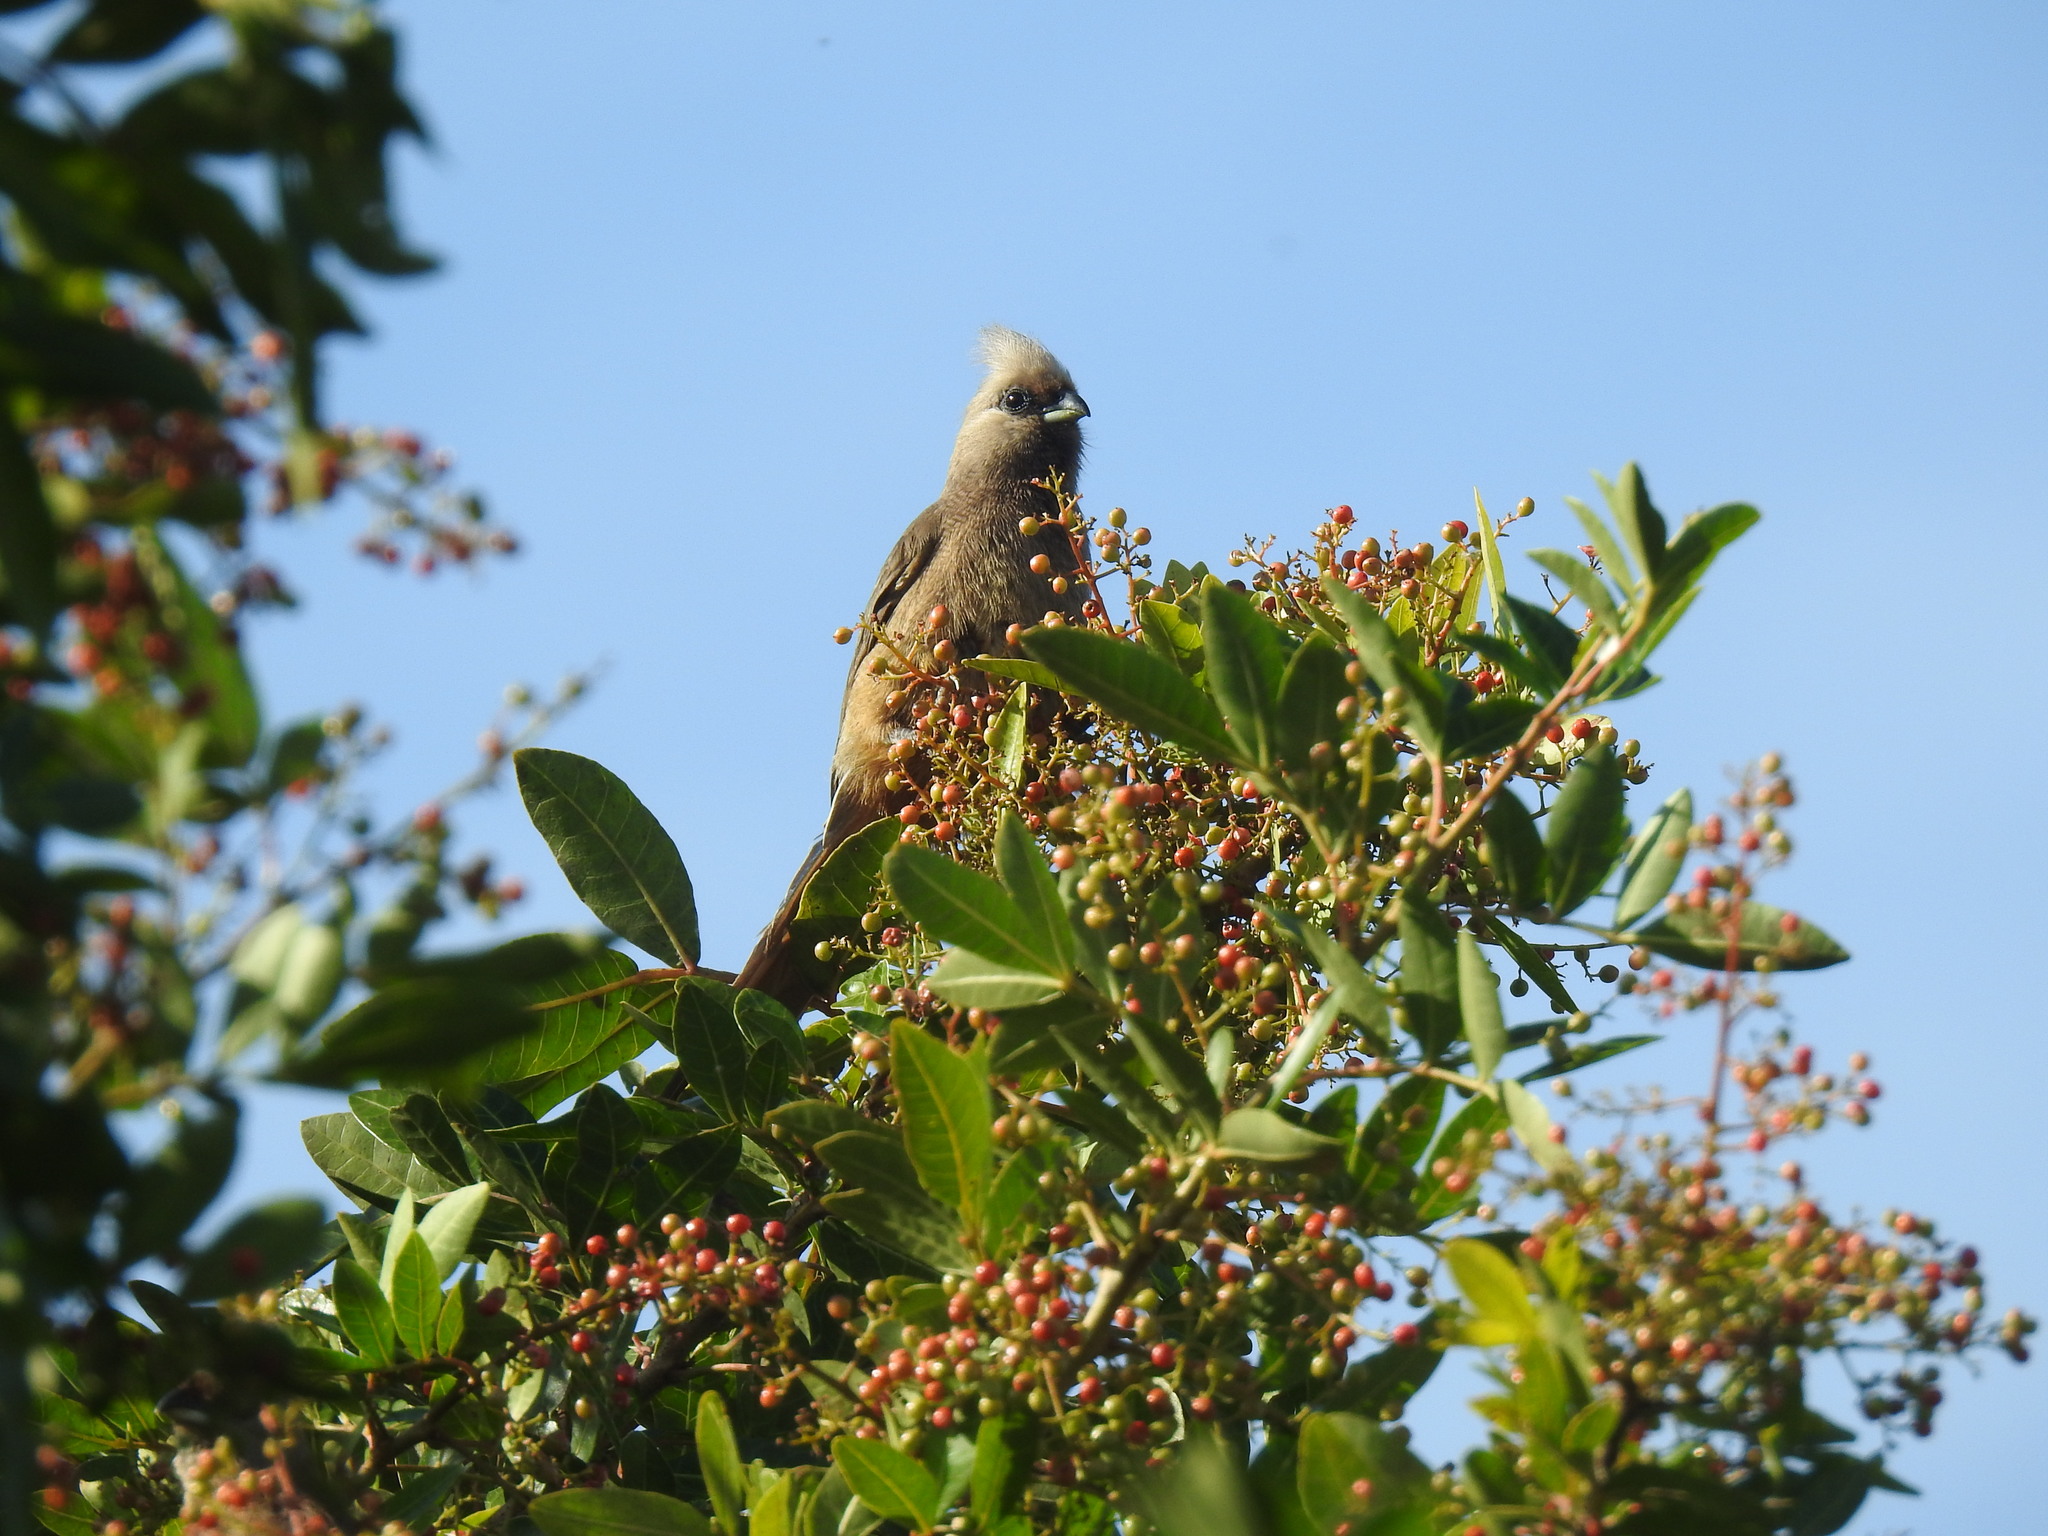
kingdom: Animalia
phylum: Chordata
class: Aves
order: Coliiformes
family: Coliidae
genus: Colius
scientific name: Colius striatus
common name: Speckled mousebird
